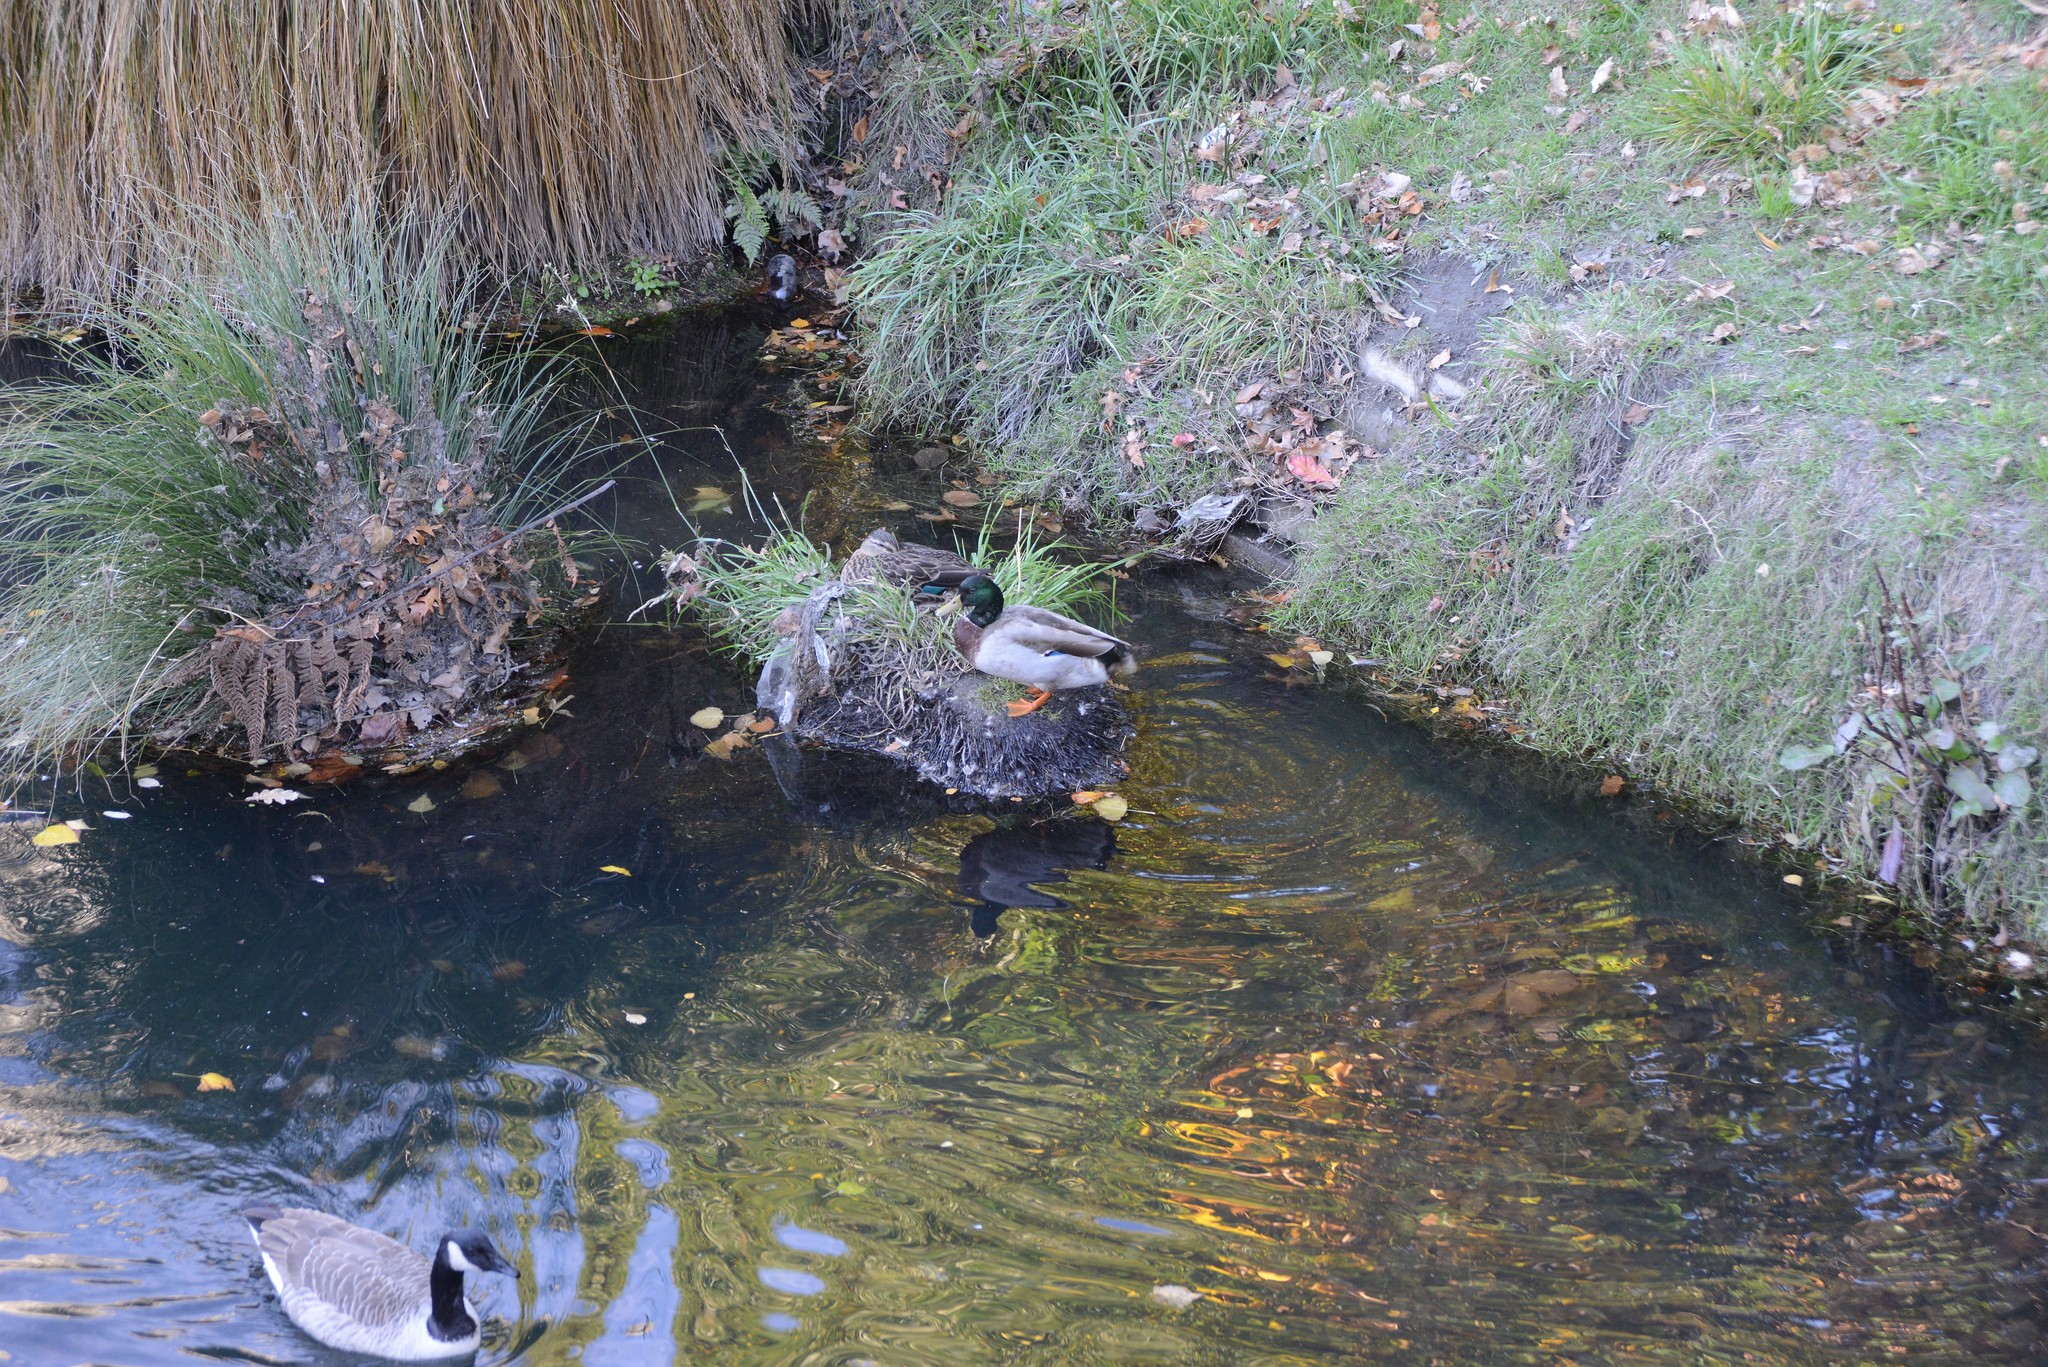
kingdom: Animalia
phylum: Chordata
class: Aves
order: Anseriformes
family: Anatidae
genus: Anas
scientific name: Anas platyrhynchos
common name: Mallard
